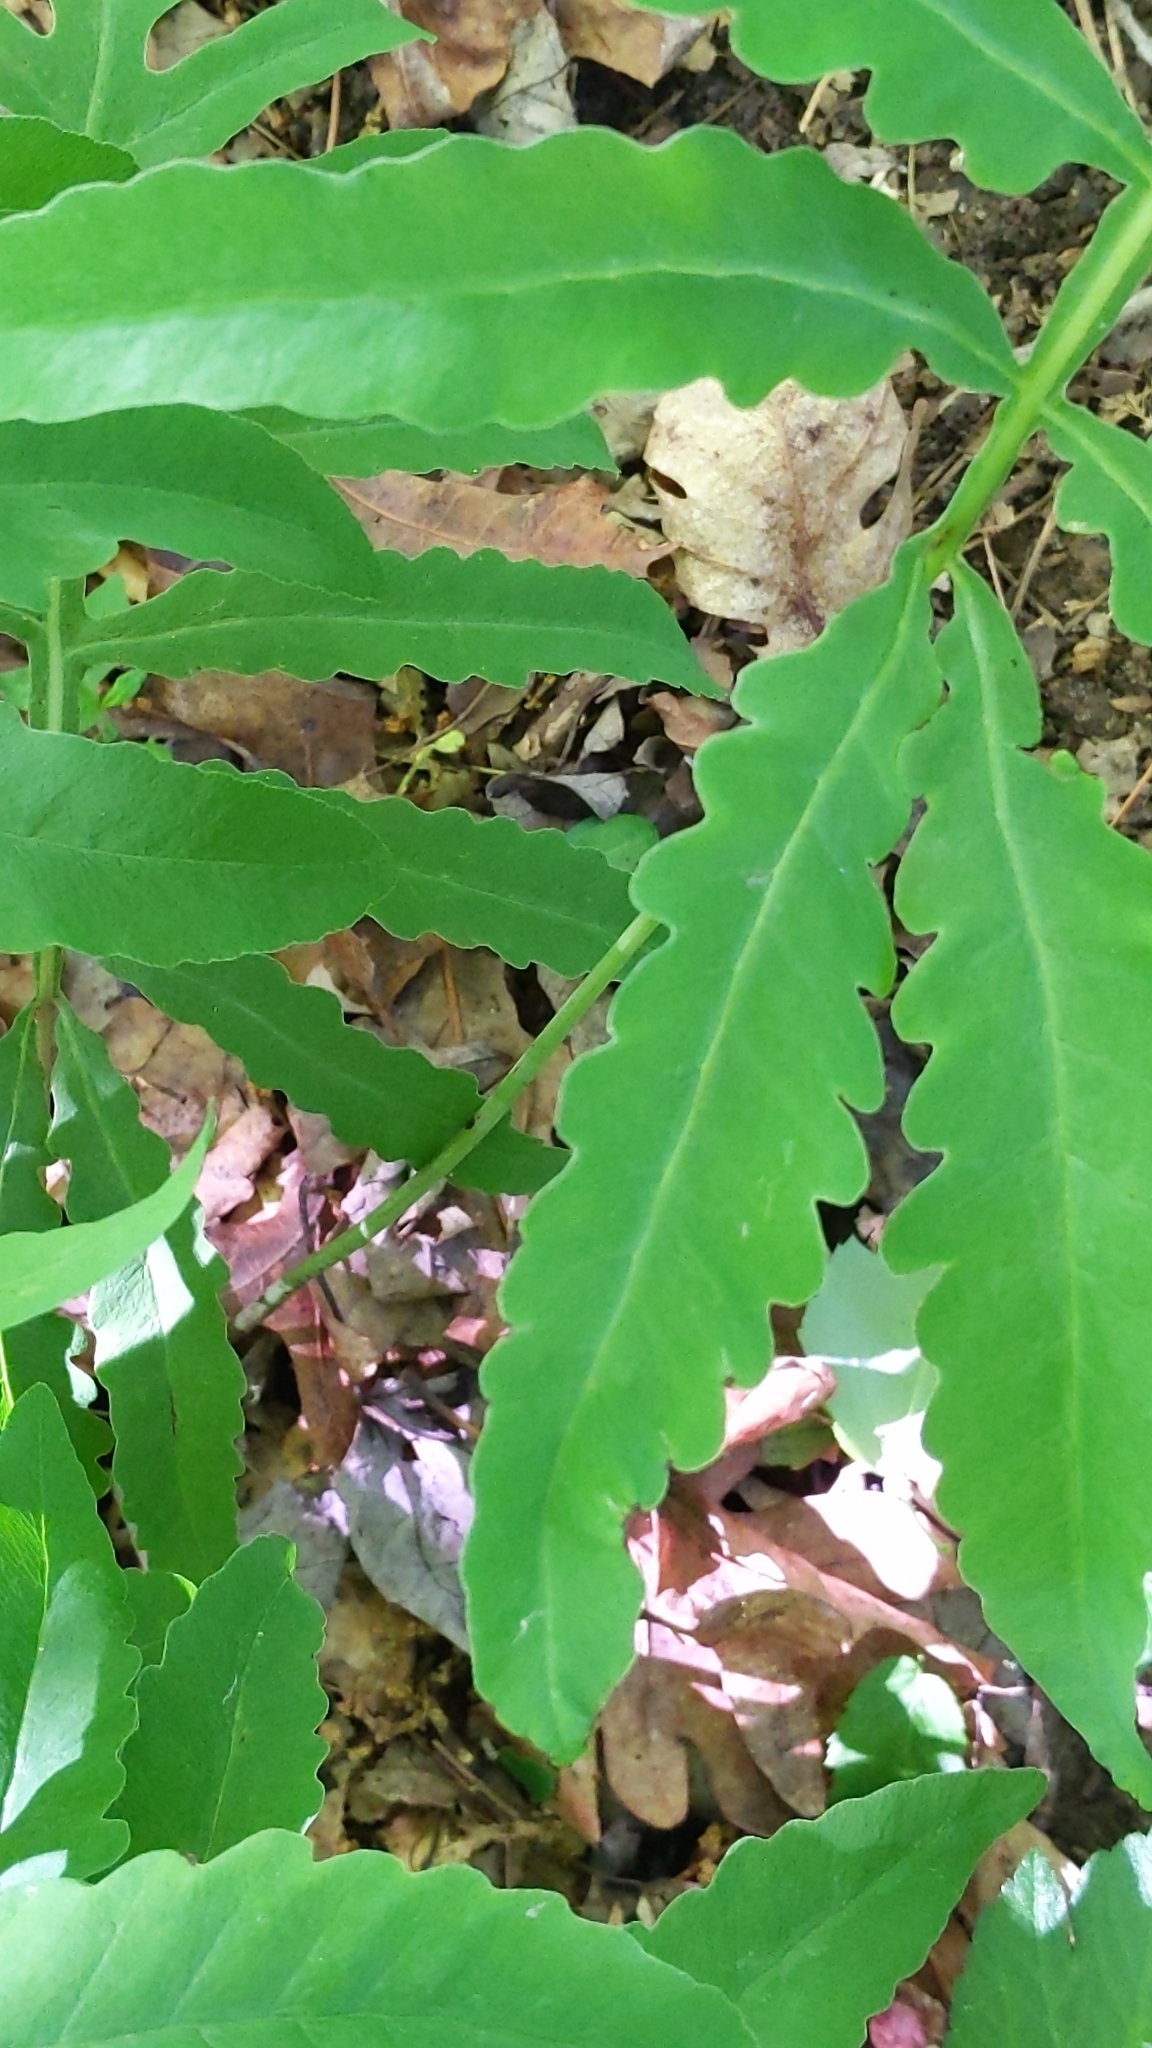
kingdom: Plantae
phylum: Tracheophyta
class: Polypodiopsida
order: Polypodiales
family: Onocleaceae
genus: Onoclea
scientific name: Onoclea sensibilis
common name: Sensitive fern
